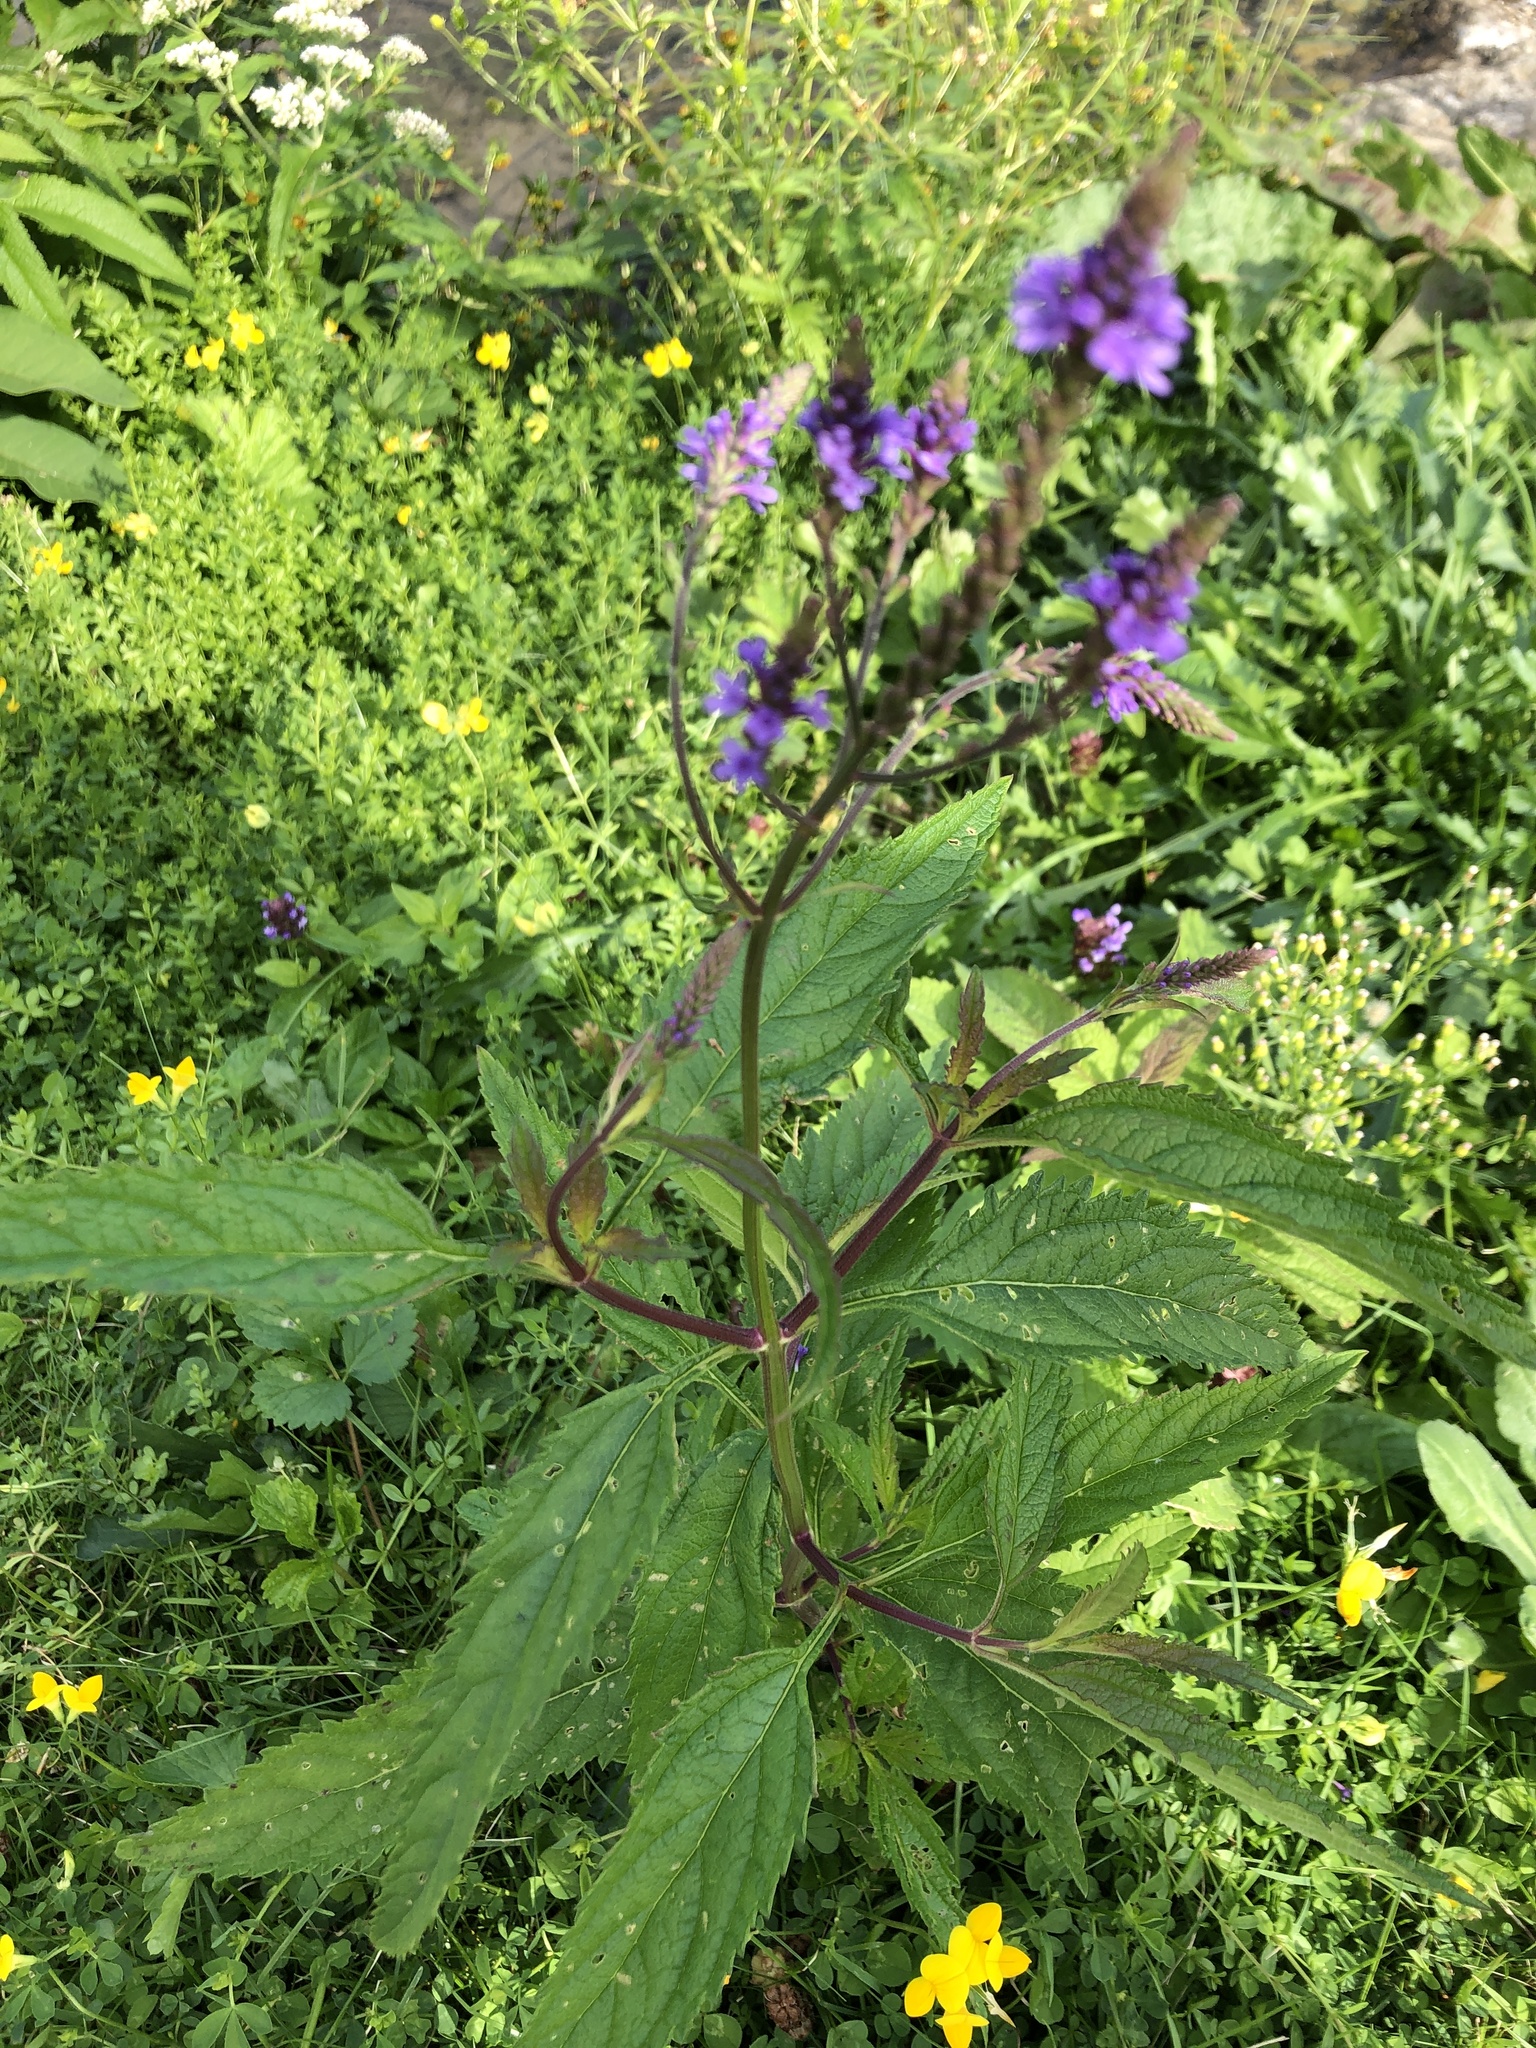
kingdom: Plantae
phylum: Tracheophyta
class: Magnoliopsida
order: Lamiales
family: Verbenaceae
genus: Verbena
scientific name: Verbena hastata
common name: American blue vervain
